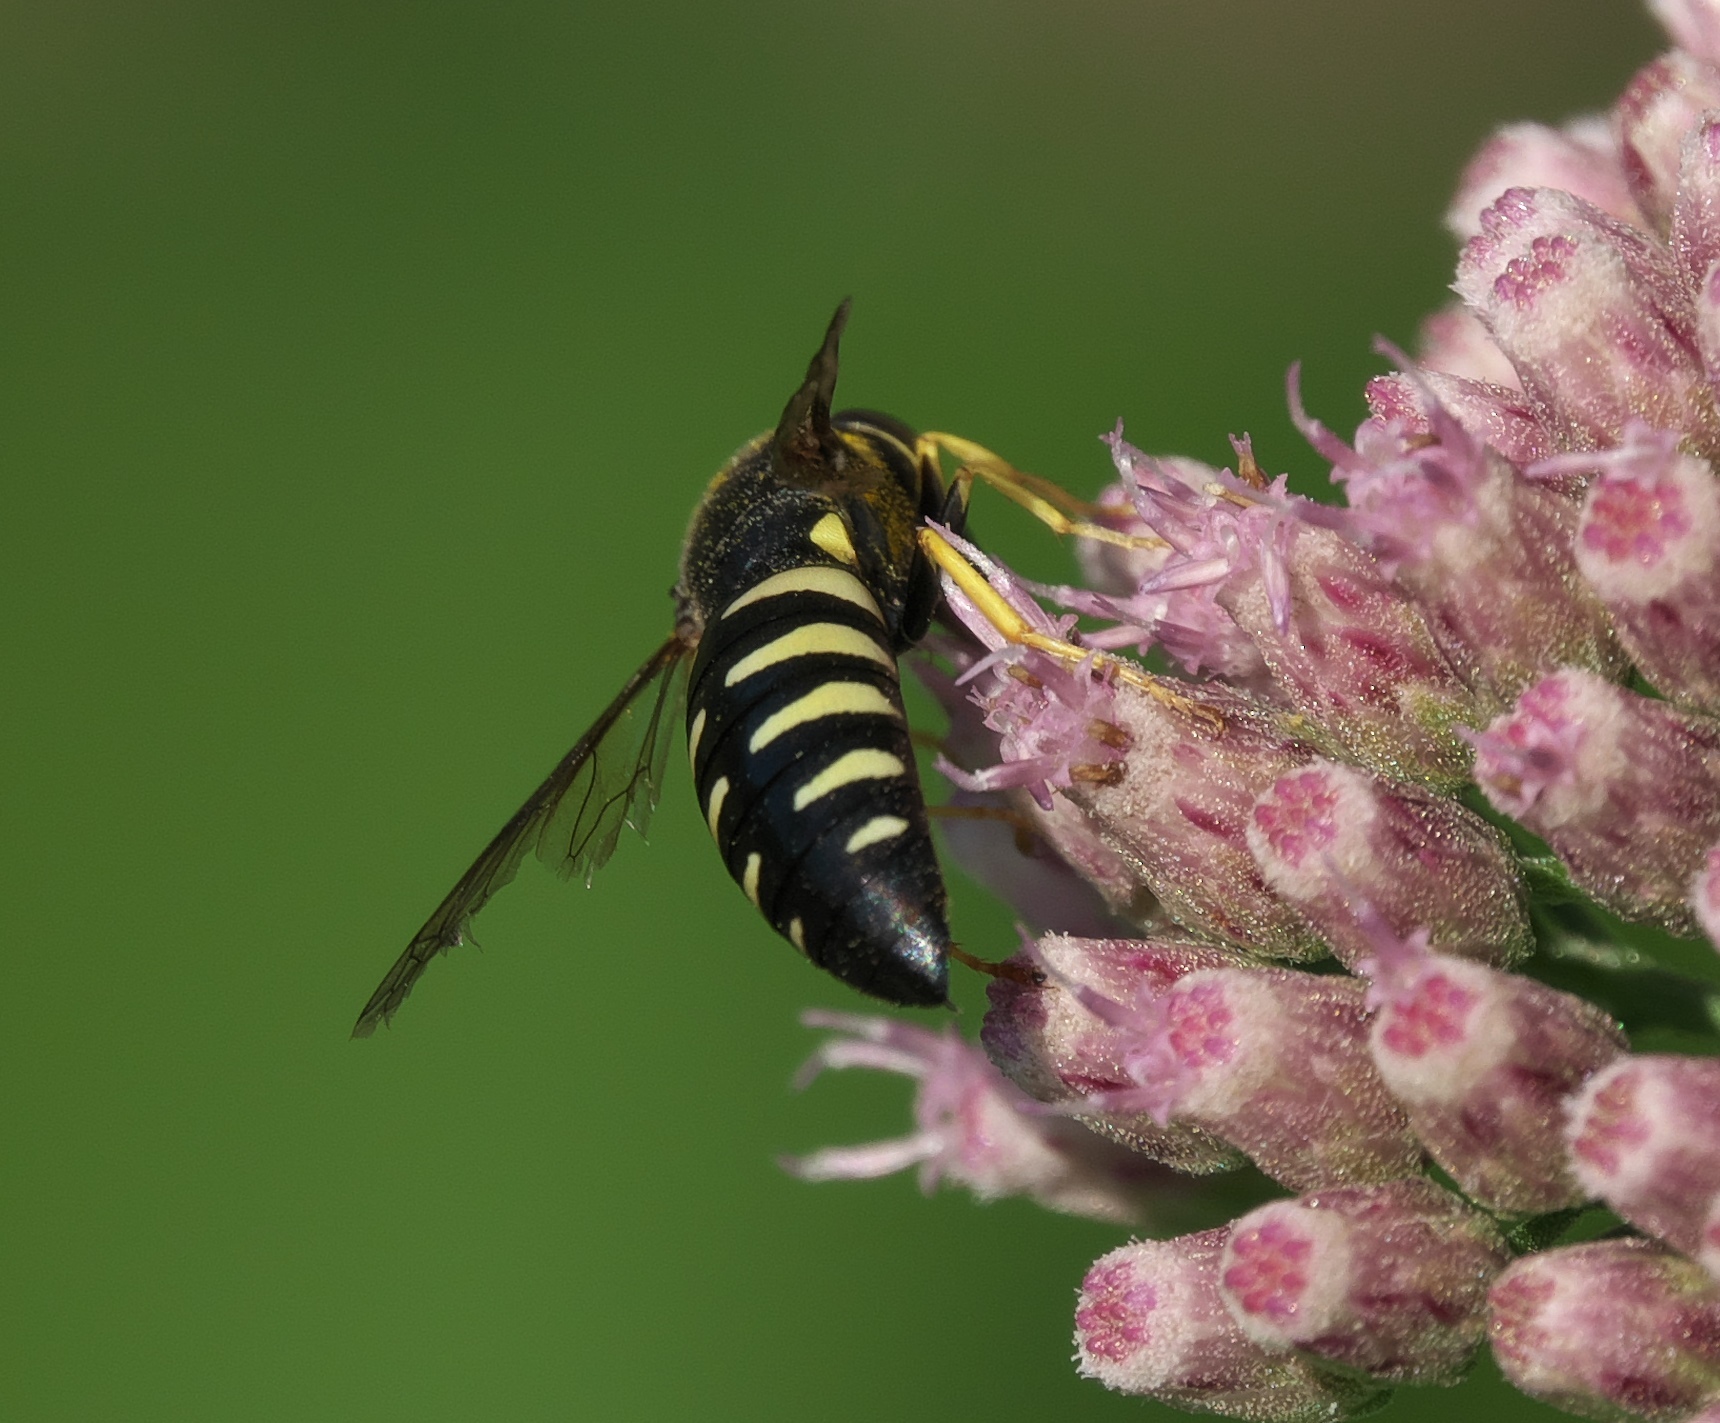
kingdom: Animalia
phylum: Arthropoda
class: Insecta
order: Hymenoptera
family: Crabronidae
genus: Bicyrtes
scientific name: Bicyrtes quadrifasciatus
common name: Four-banded stink bug hunter wasp
